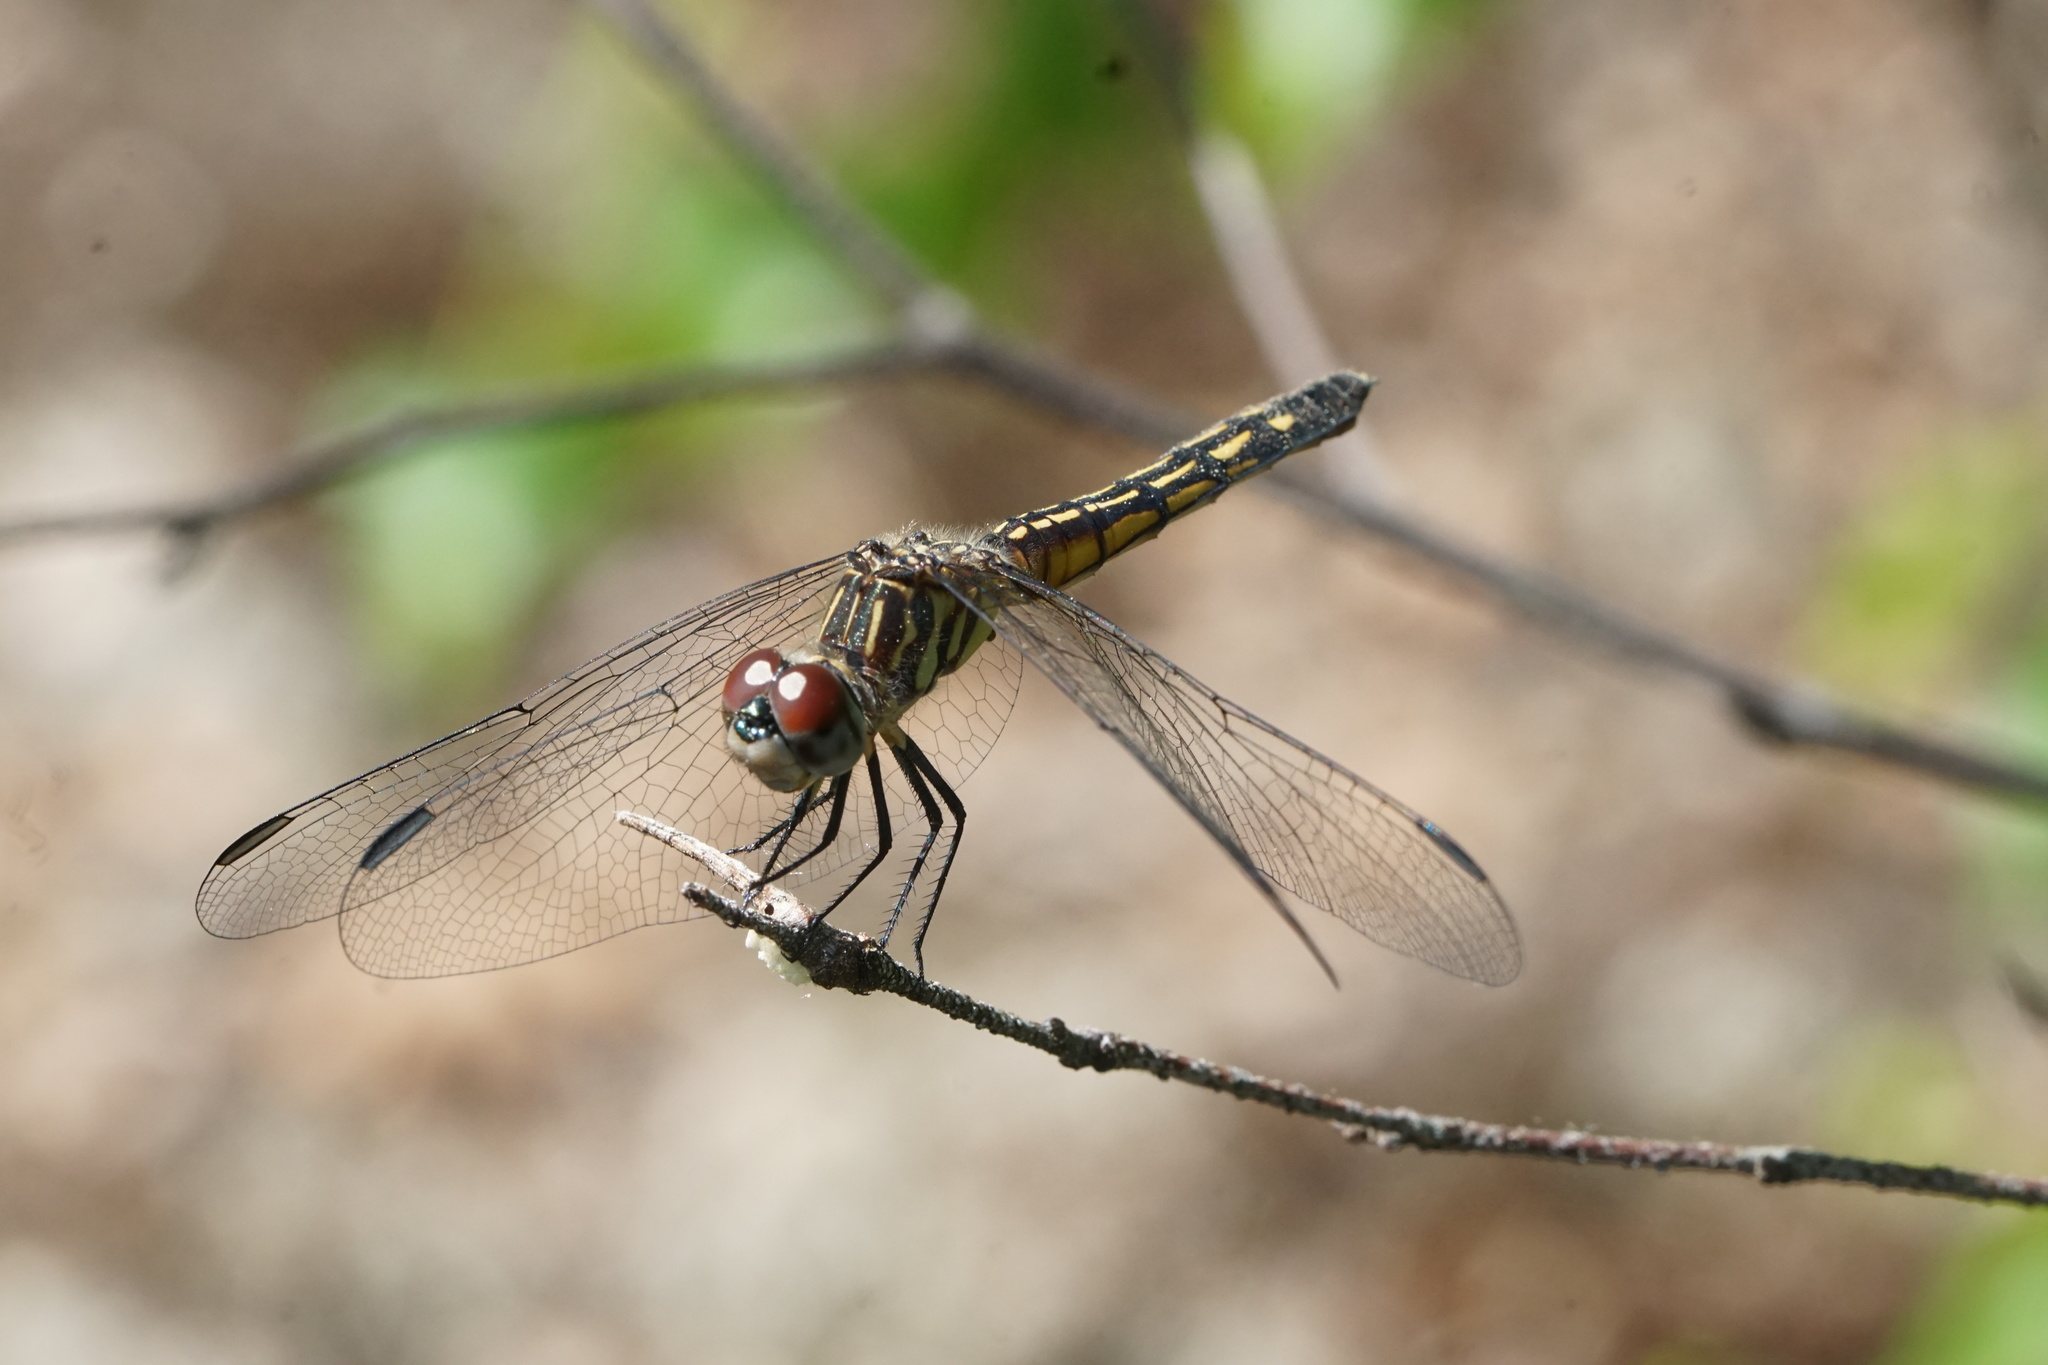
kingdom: Animalia
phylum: Arthropoda
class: Insecta
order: Odonata
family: Libellulidae
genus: Pachydiplax
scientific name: Pachydiplax longipennis
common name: Blue dasher
